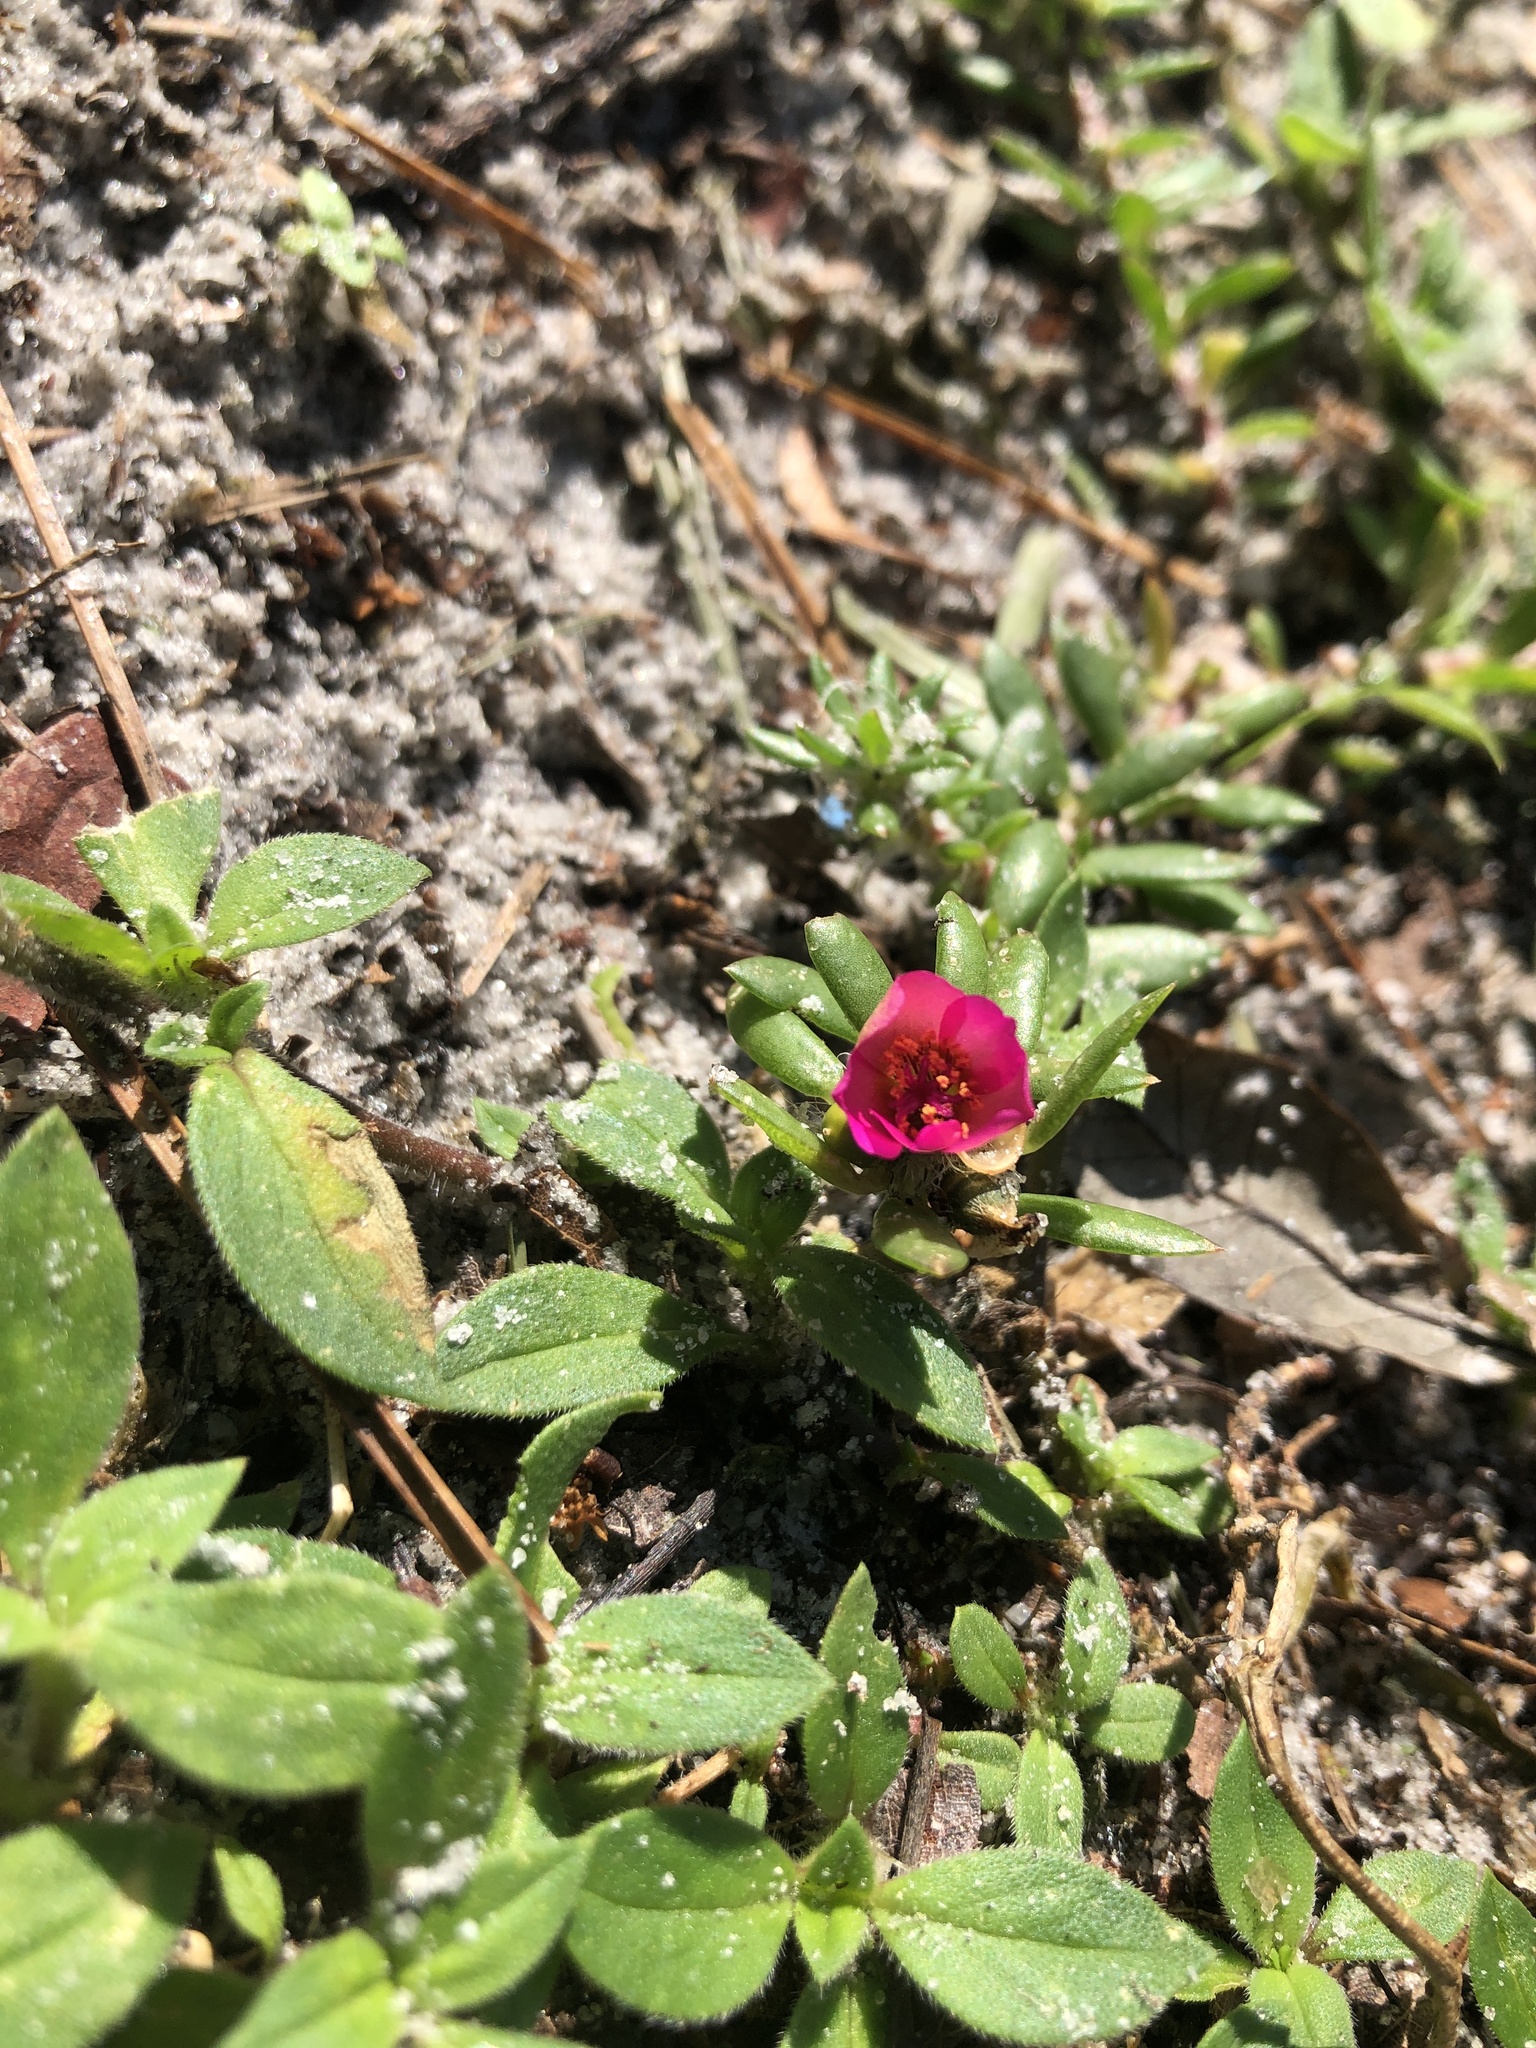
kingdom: Plantae
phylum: Tracheophyta
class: Magnoliopsida
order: Caryophyllales
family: Portulacaceae
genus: Portulaca
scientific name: Portulaca amilis
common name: Paraguayan purslane
